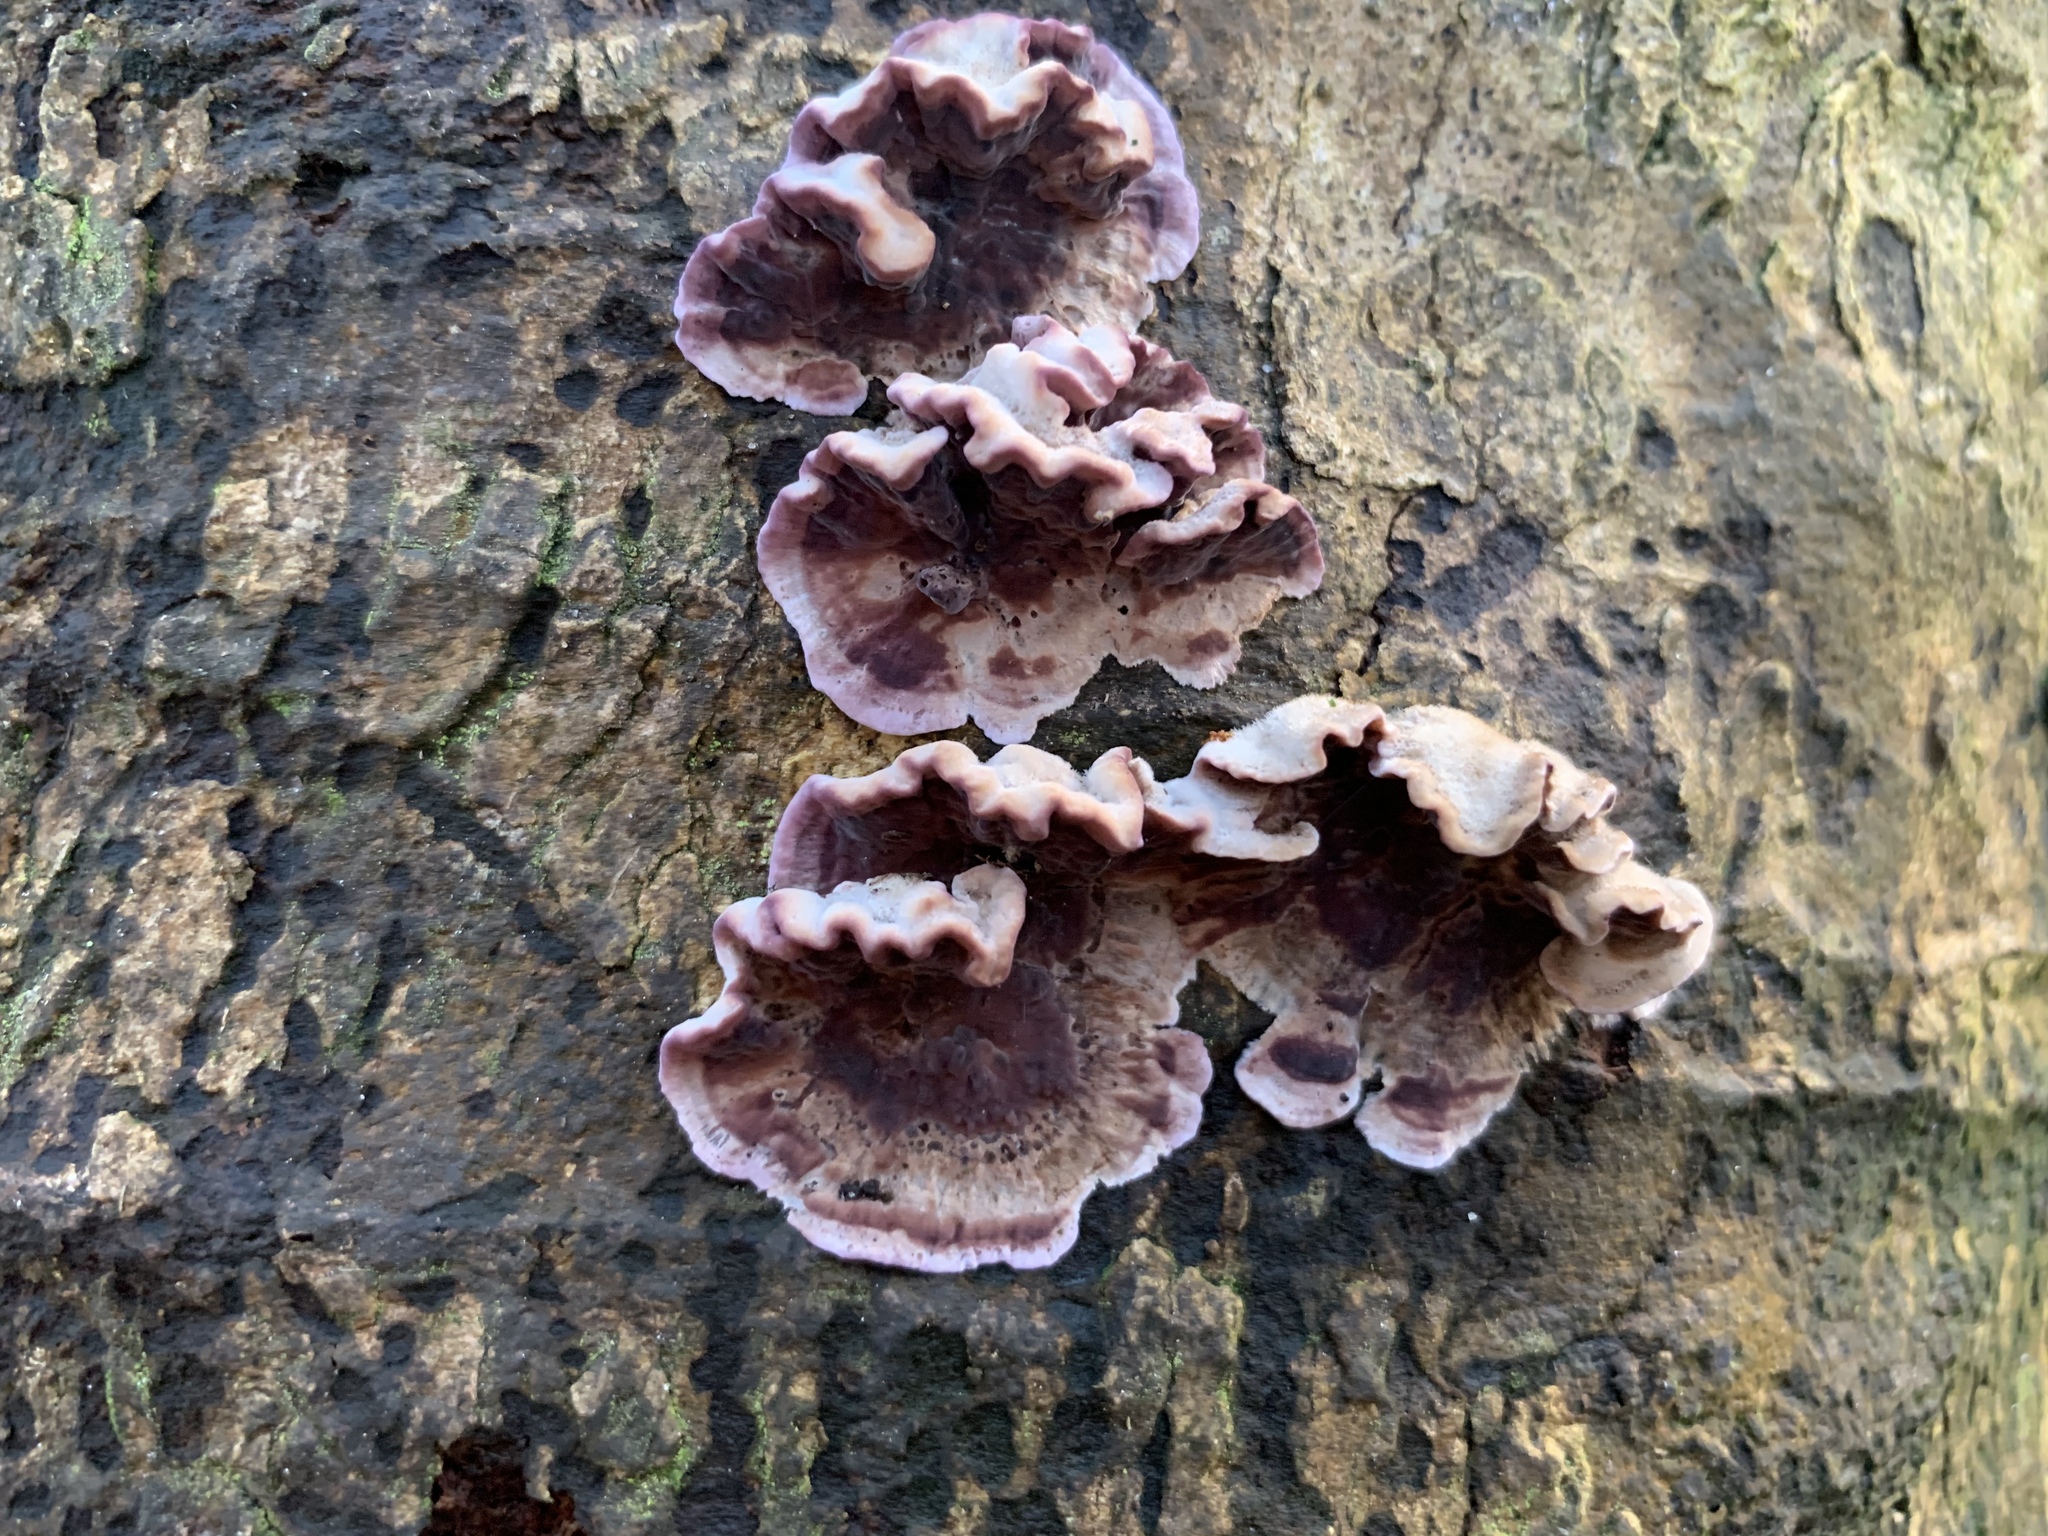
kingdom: Fungi
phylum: Basidiomycota
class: Agaricomycetes
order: Agaricales
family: Cyphellaceae
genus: Chondrostereum
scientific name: Chondrostereum purpureum
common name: Silver leaf disease
